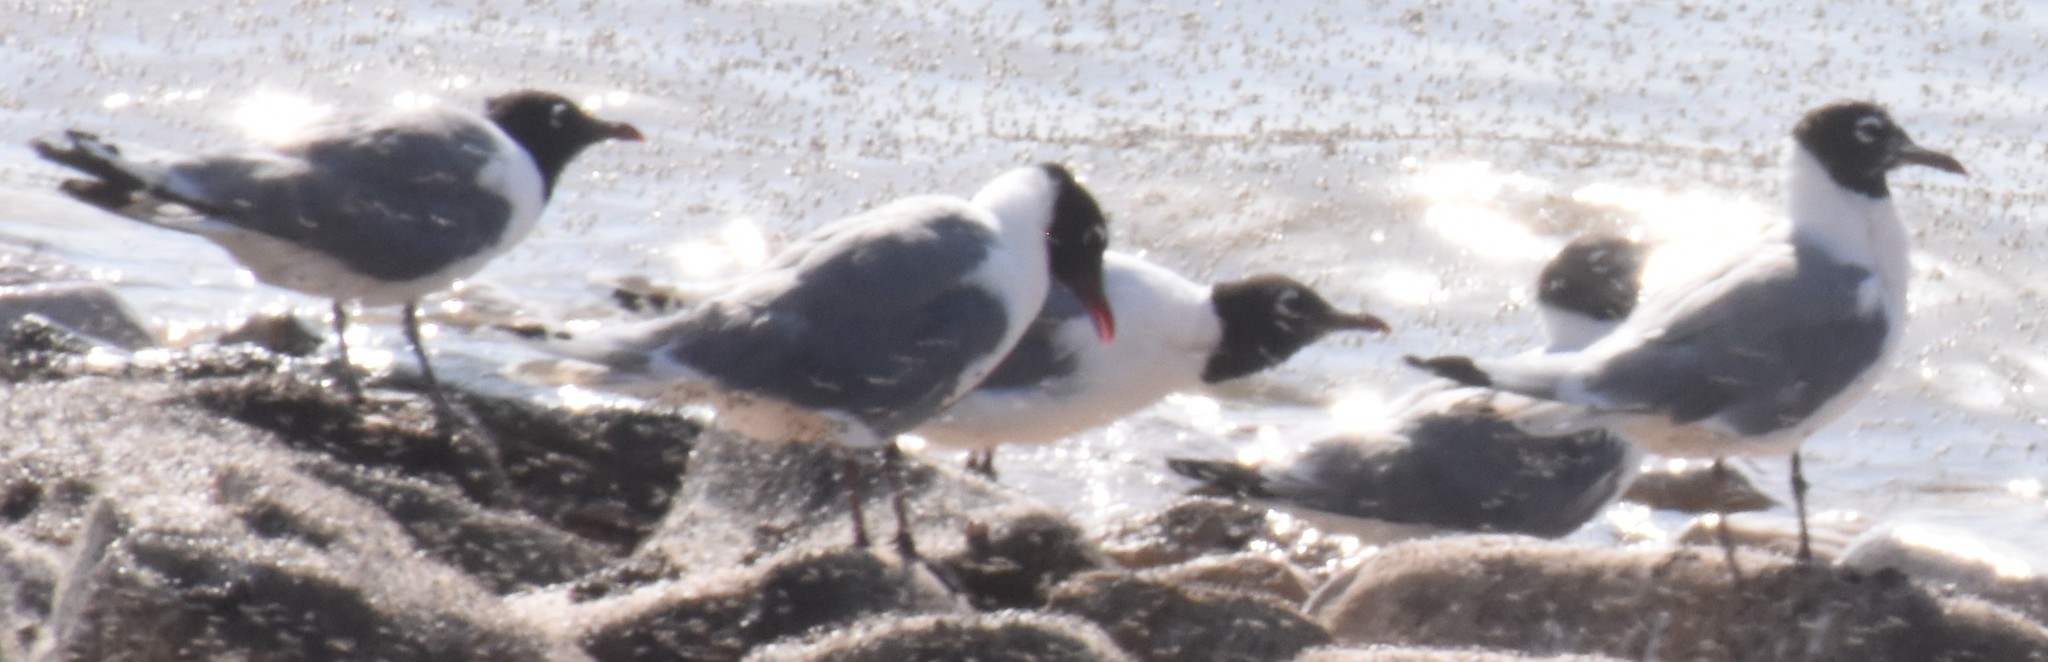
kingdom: Animalia
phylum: Chordata
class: Aves
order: Charadriiformes
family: Laridae
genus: Leucophaeus
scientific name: Leucophaeus pipixcan
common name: Franklin's gull
